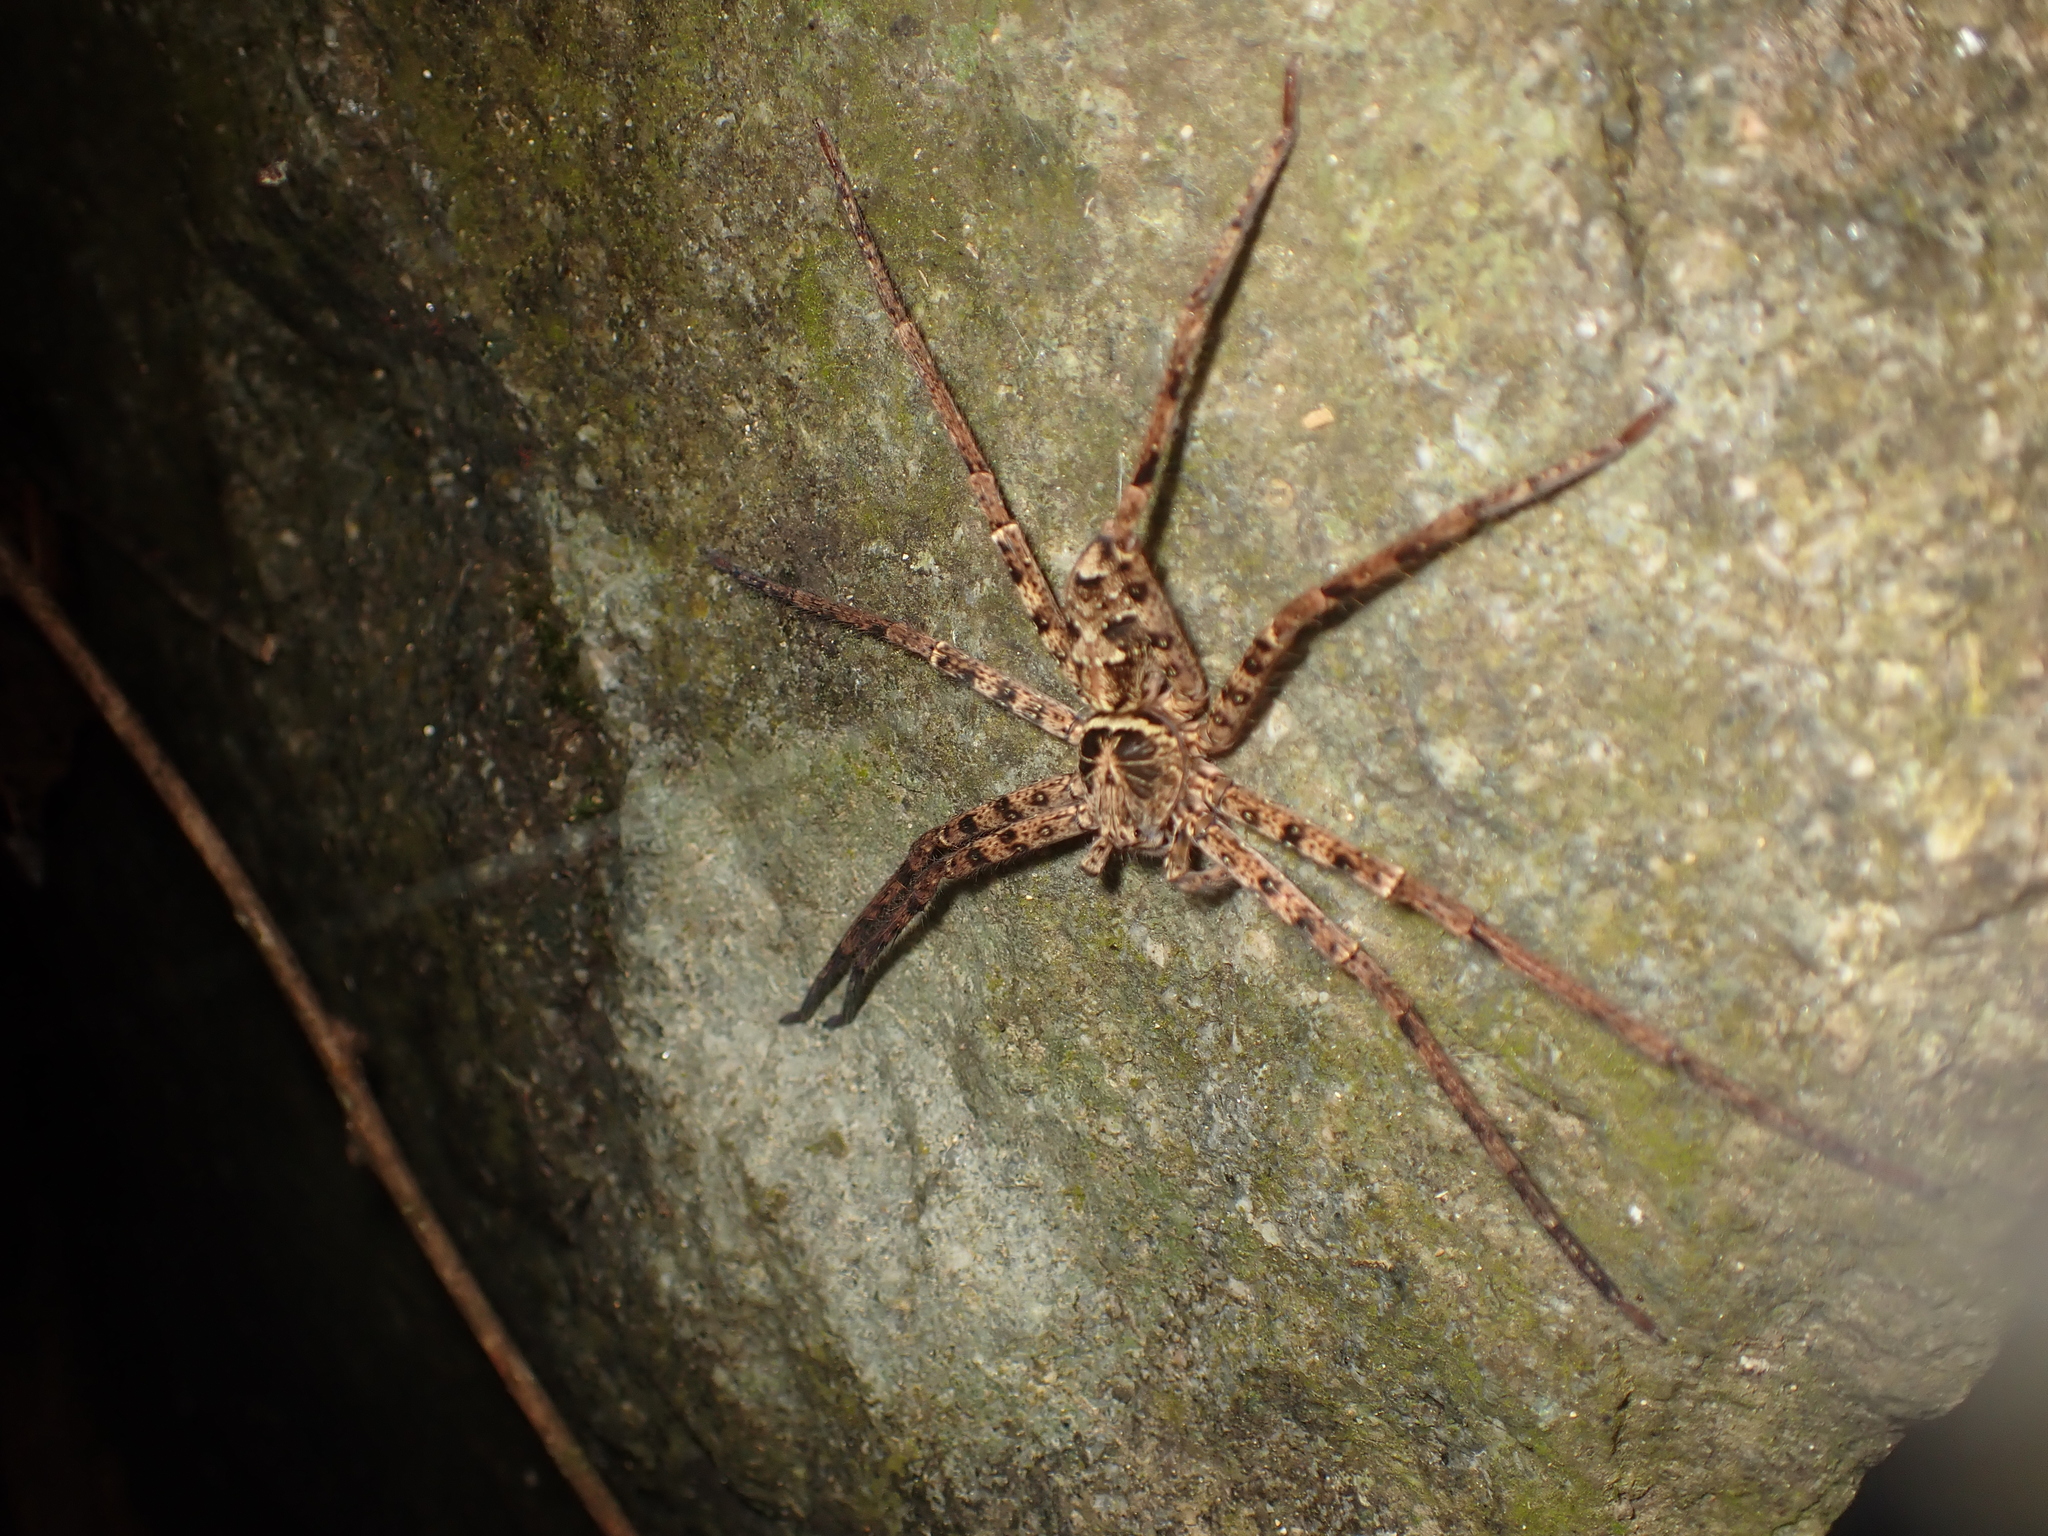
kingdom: Animalia
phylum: Arthropoda
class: Arachnida
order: Araneae
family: Sparassidae
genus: Heteropoda
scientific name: Heteropoda amphora
